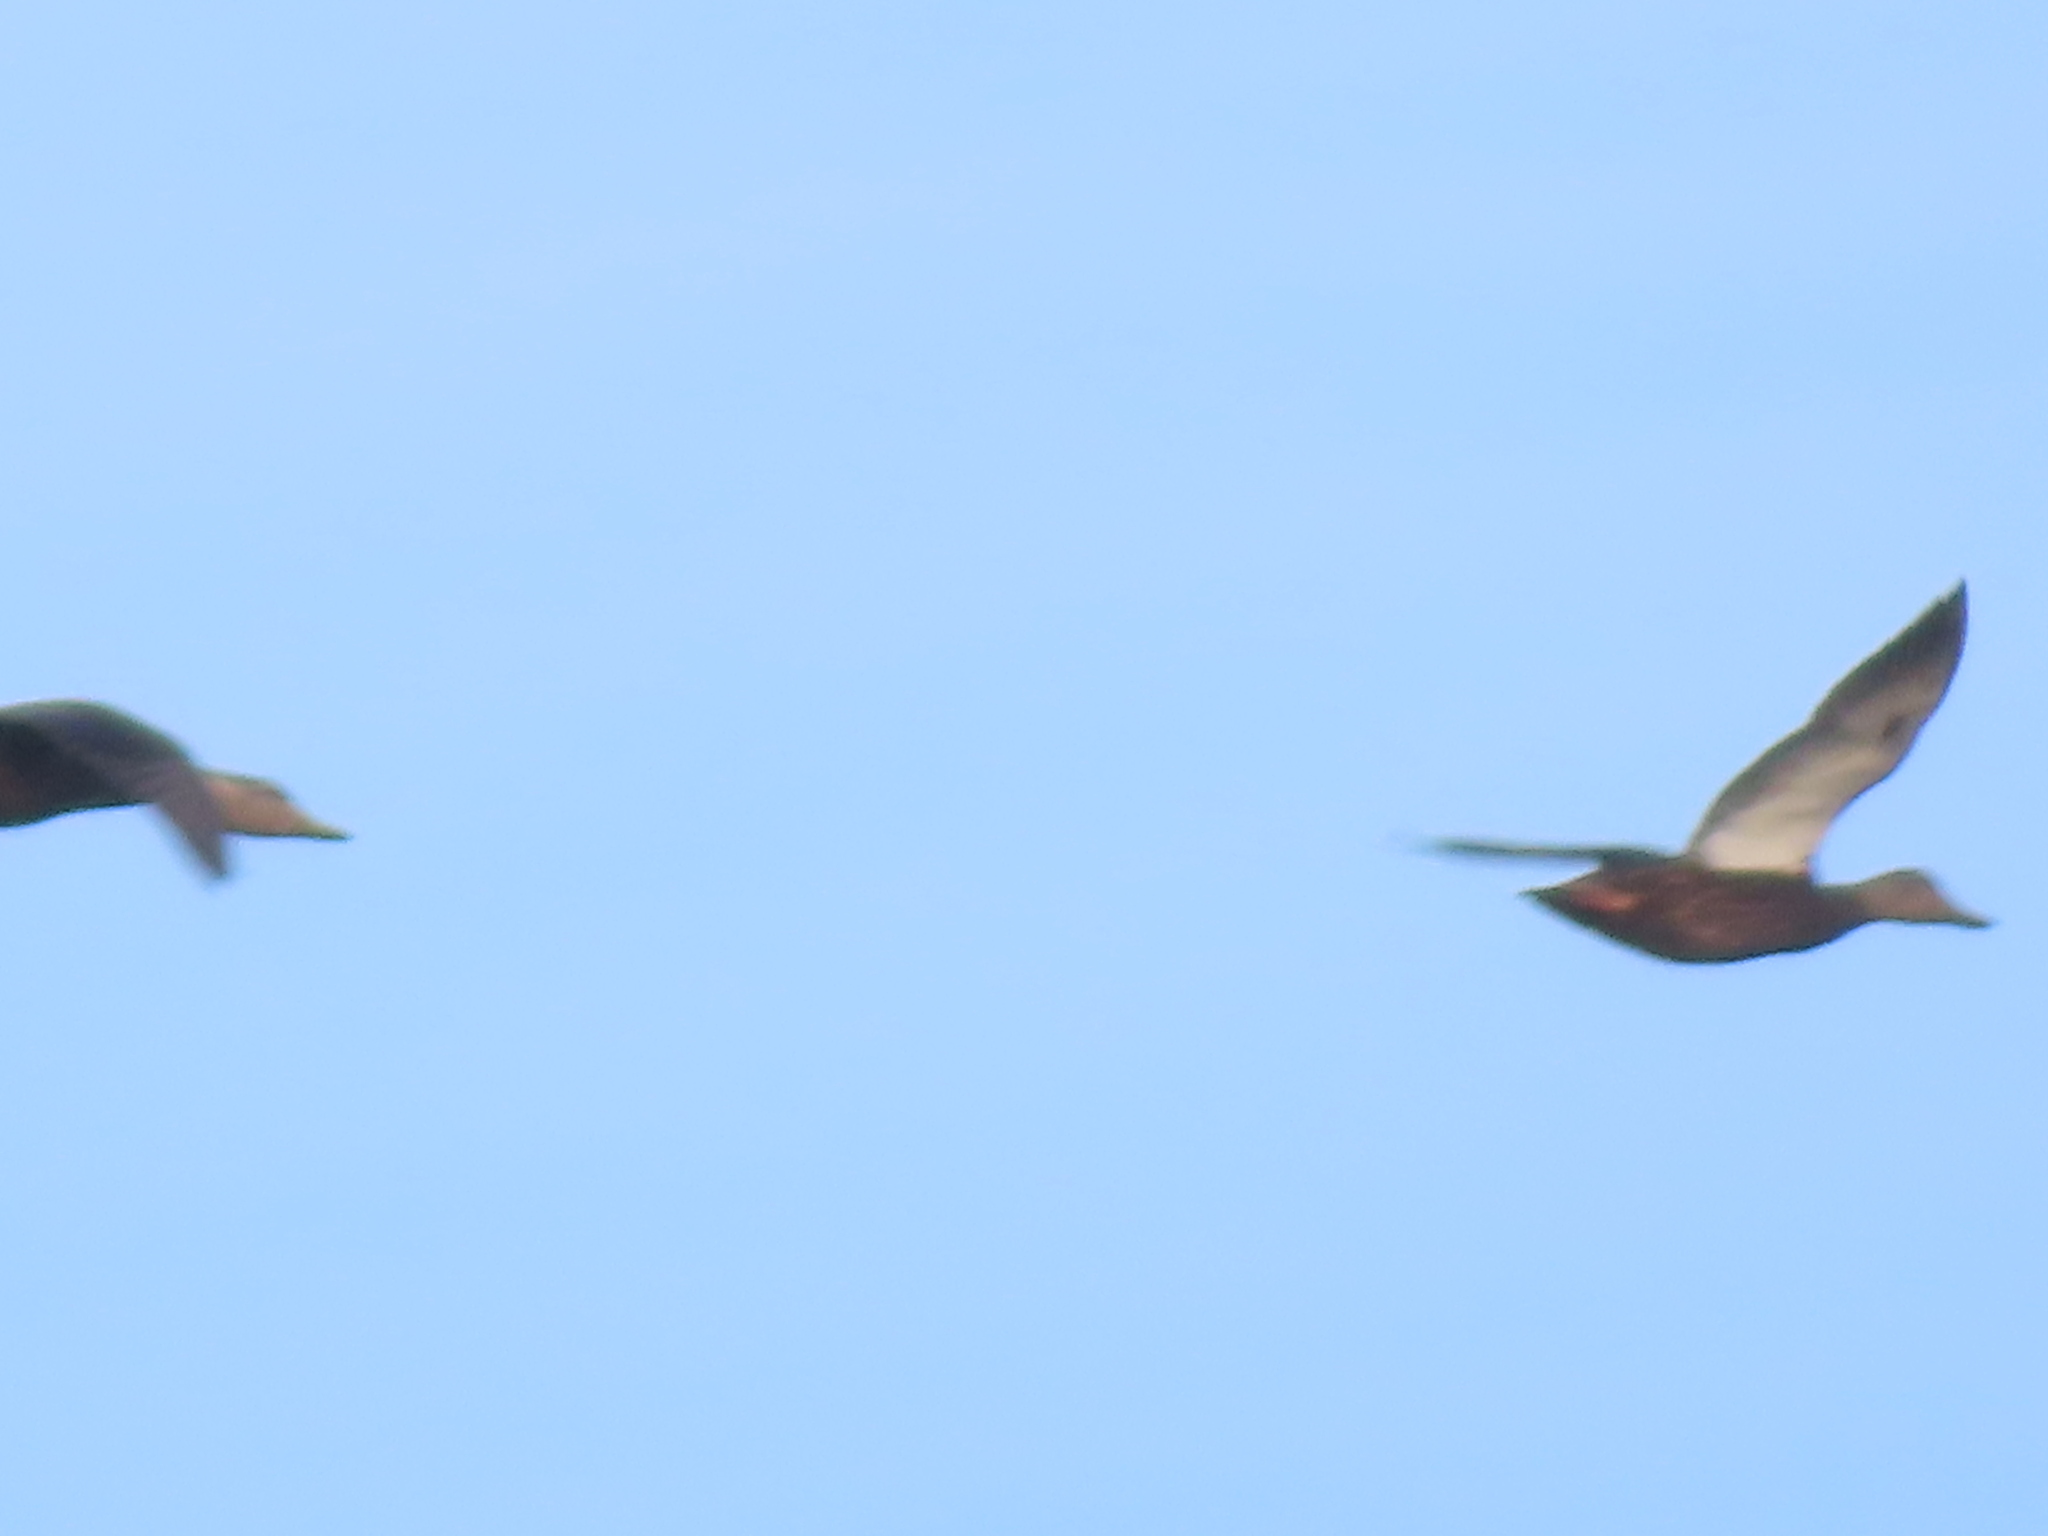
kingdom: Animalia
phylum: Chordata
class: Aves
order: Anseriformes
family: Anatidae
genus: Anas
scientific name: Anas rubripes
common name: American black duck
